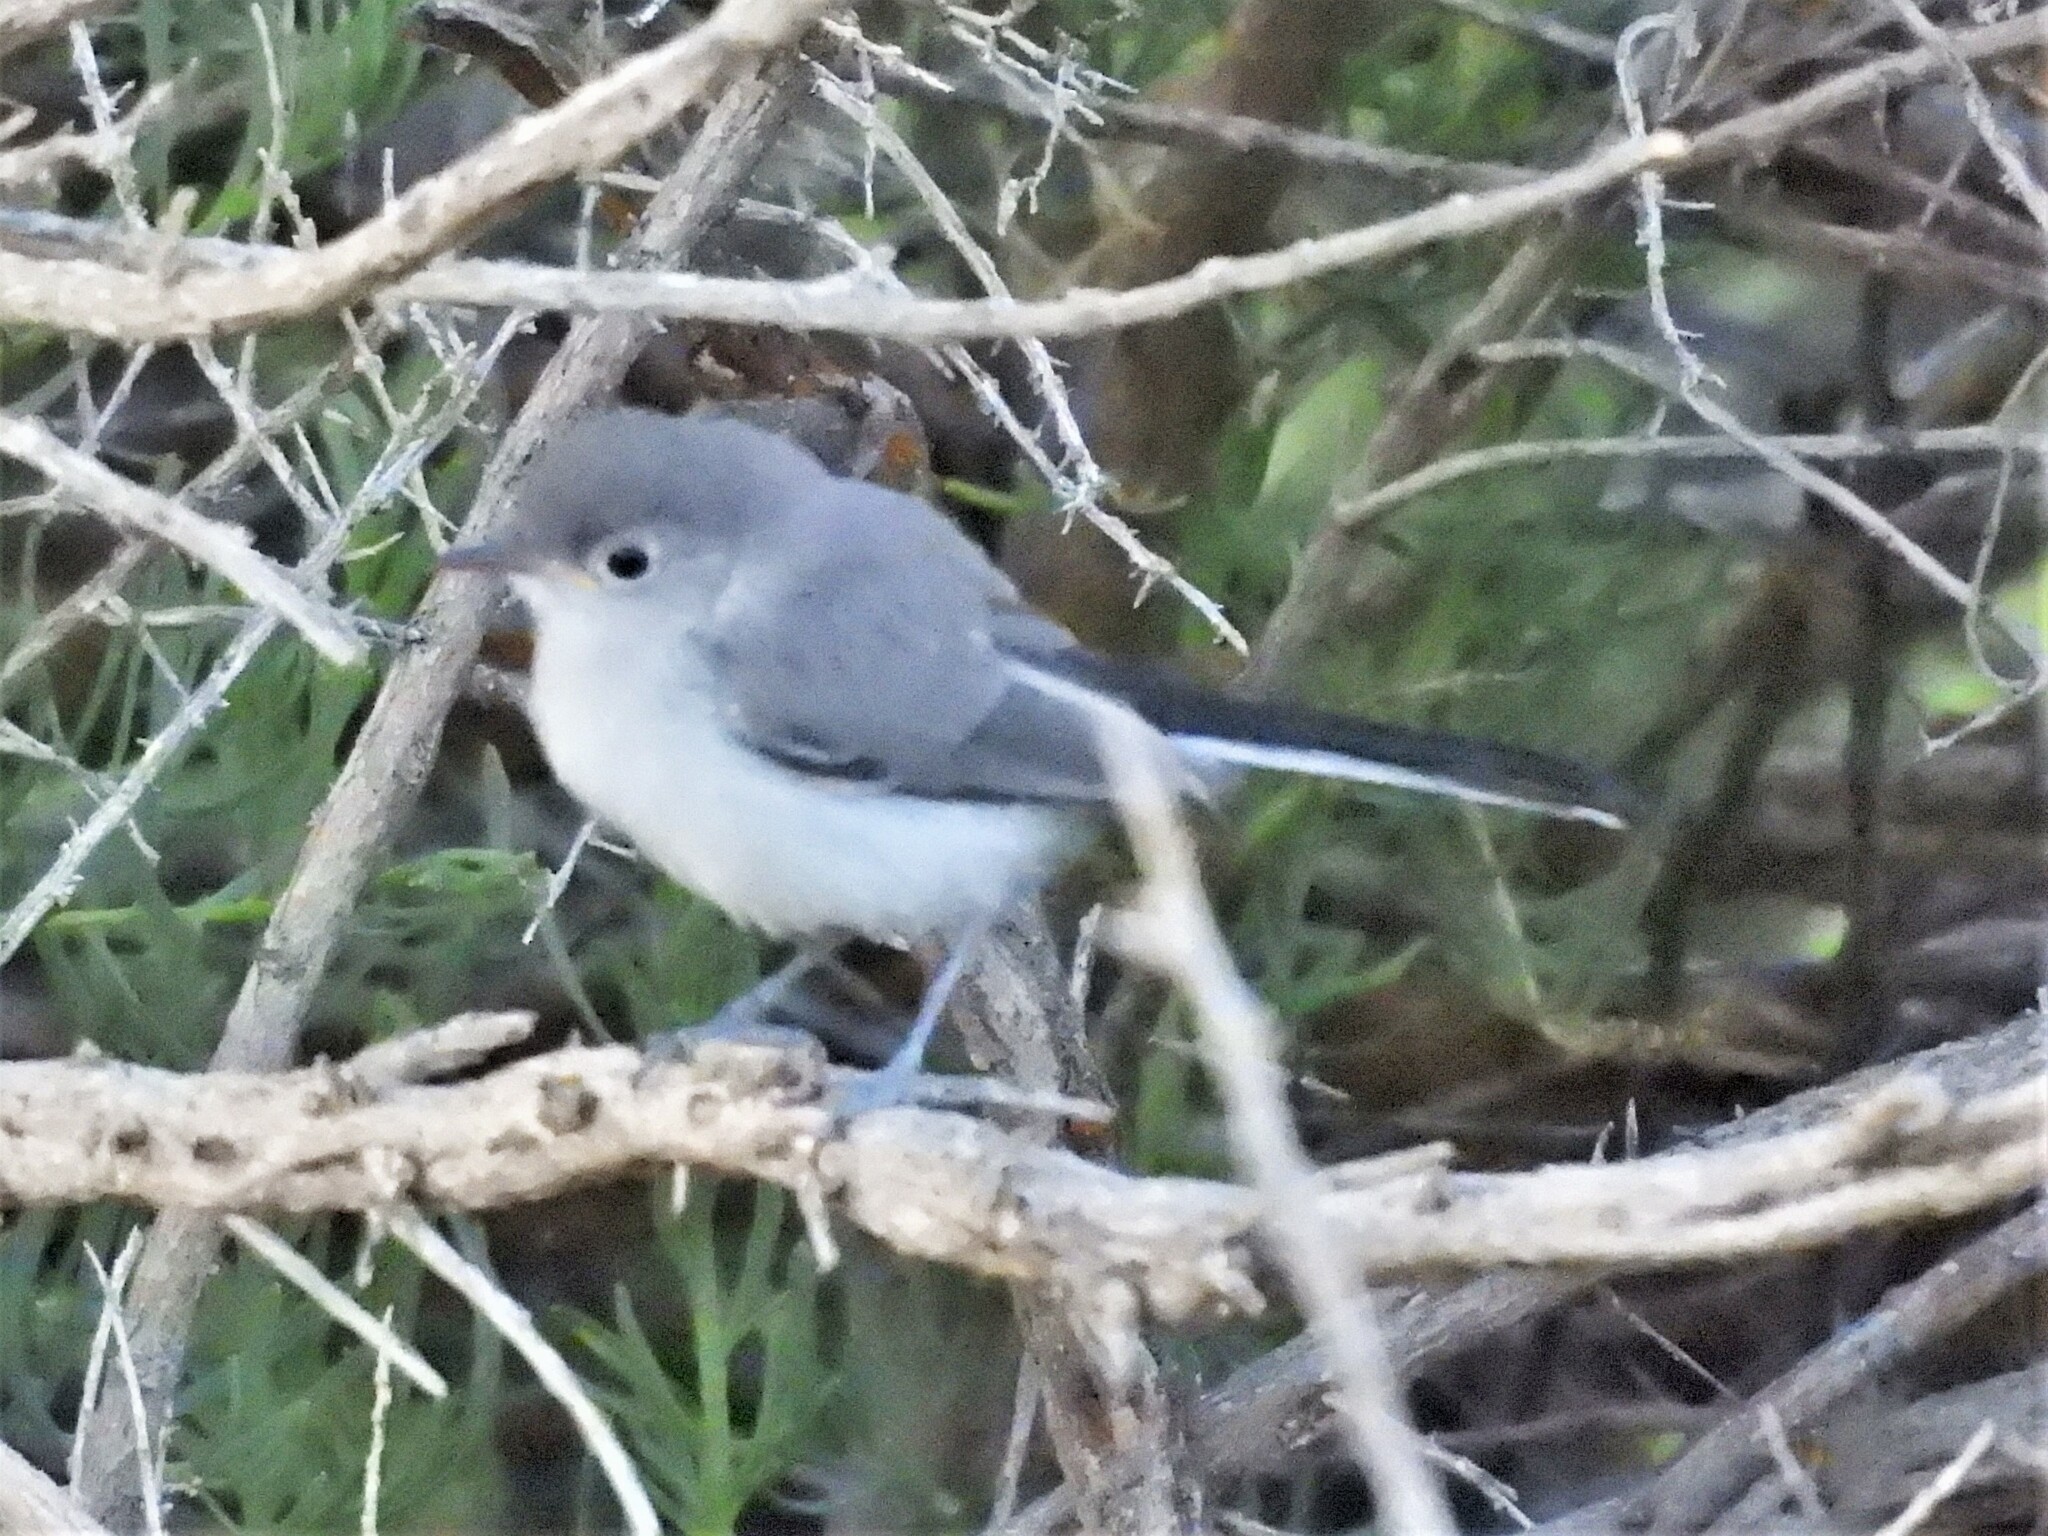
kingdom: Animalia
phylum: Chordata
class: Aves
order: Passeriformes
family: Polioptilidae
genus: Polioptila
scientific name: Polioptila caerulea
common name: Blue-gray gnatcatcher
